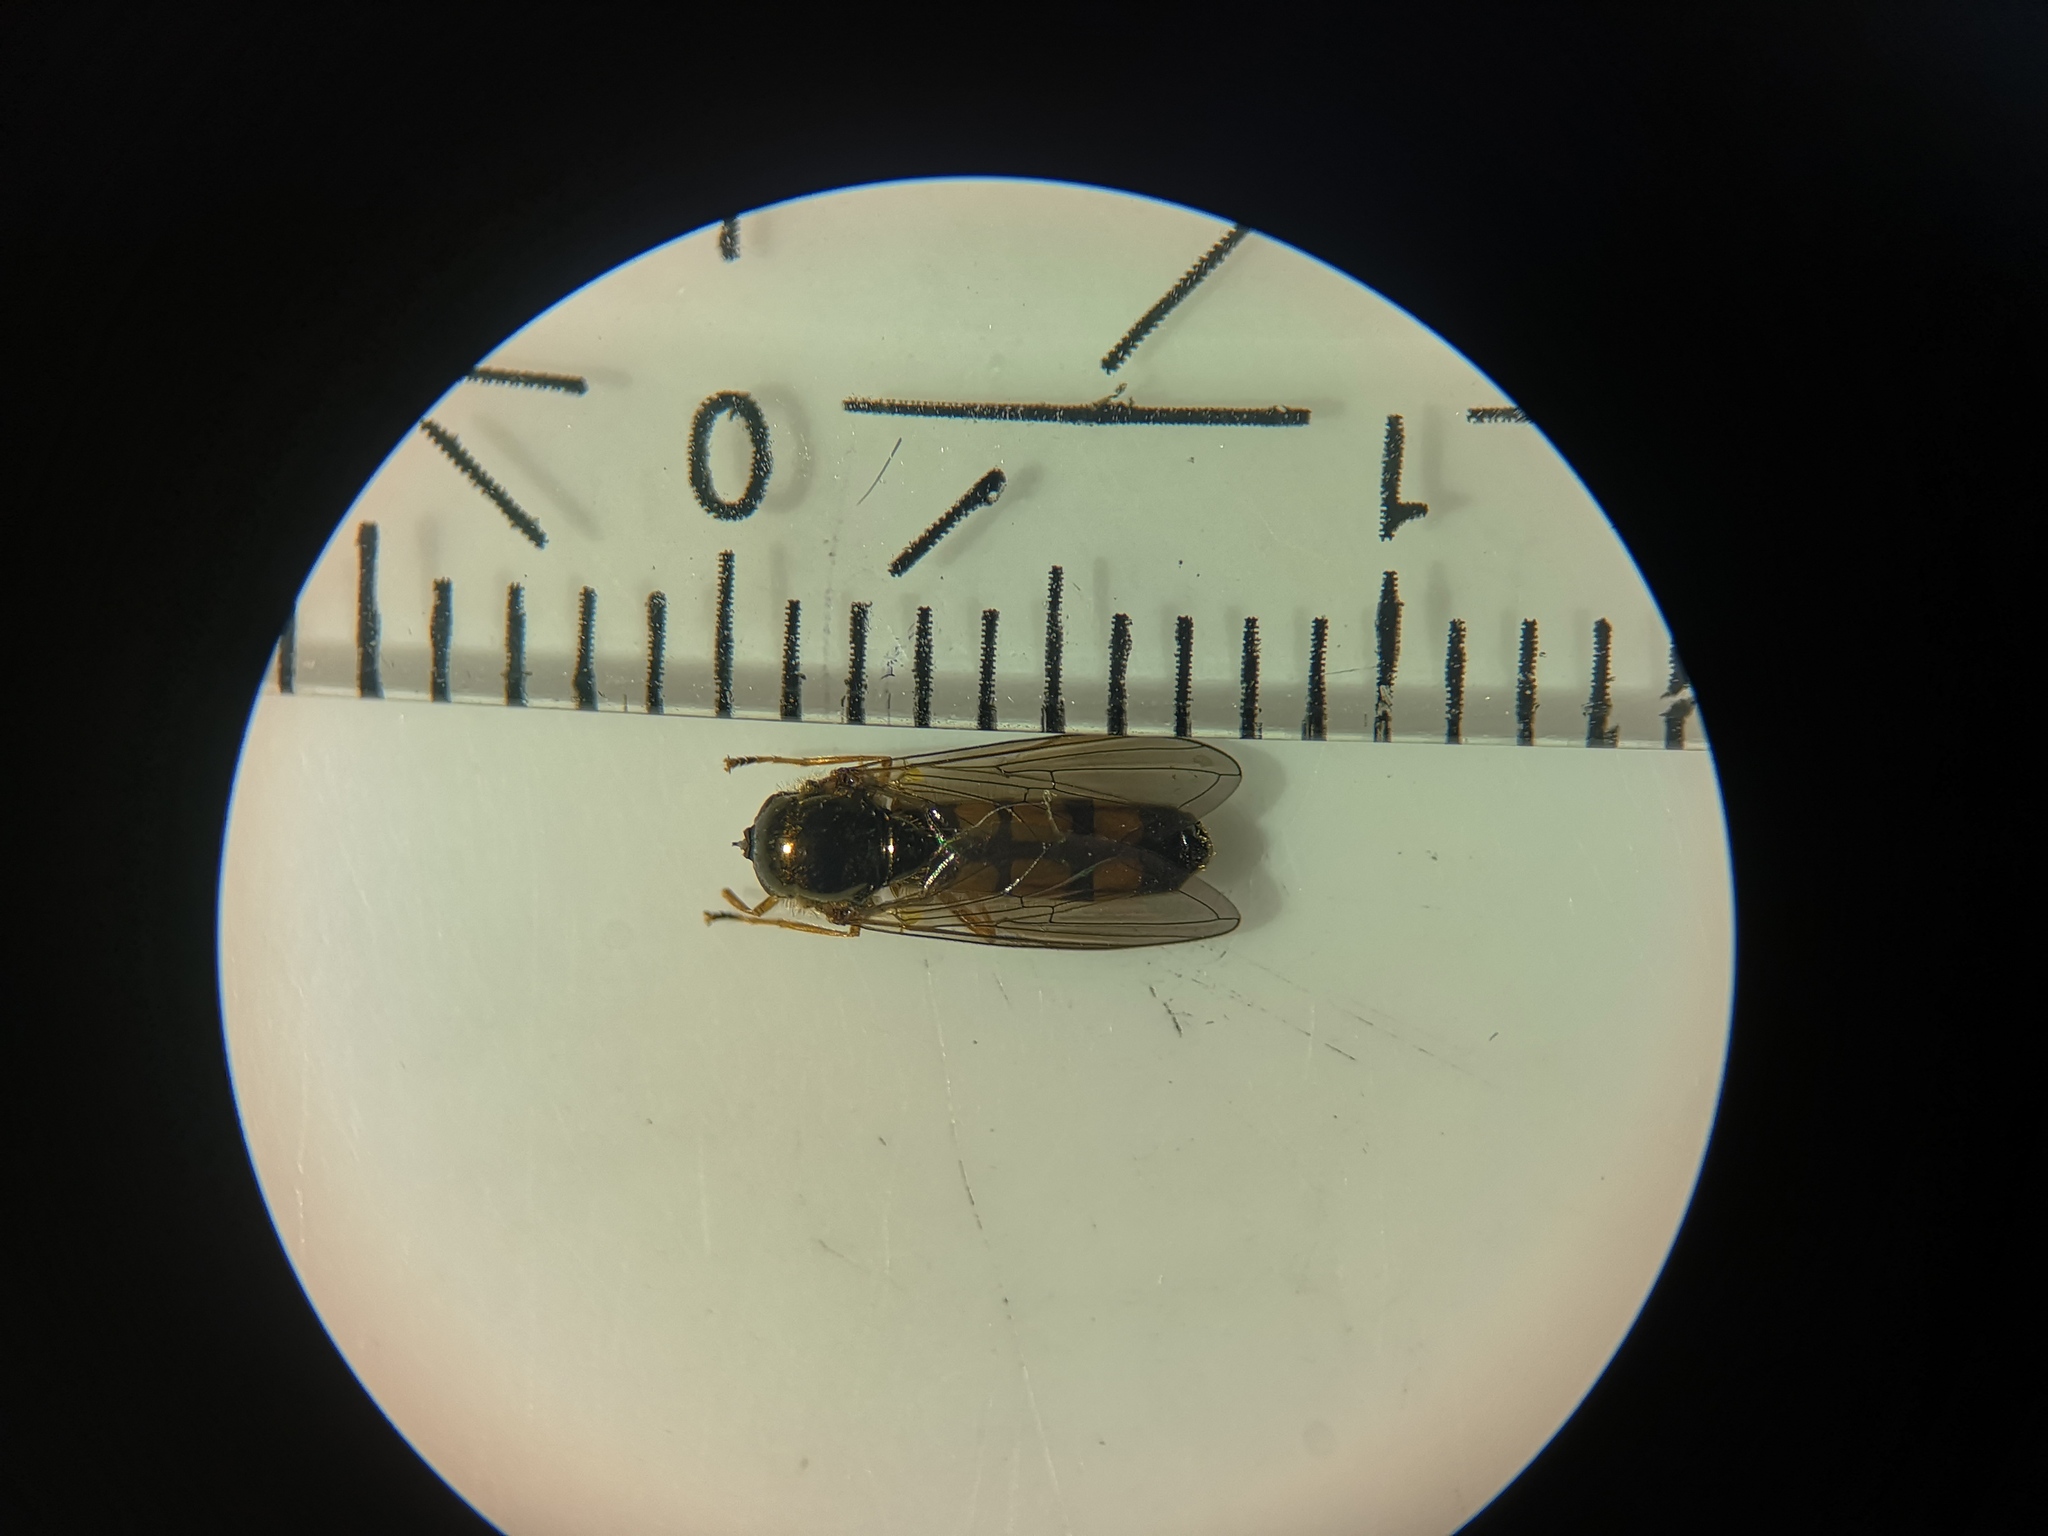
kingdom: Animalia
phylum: Arthropoda
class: Insecta
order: Diptera
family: Syrphidae
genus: Melanostoma
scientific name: Melanostoma mellina
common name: Hover fly
